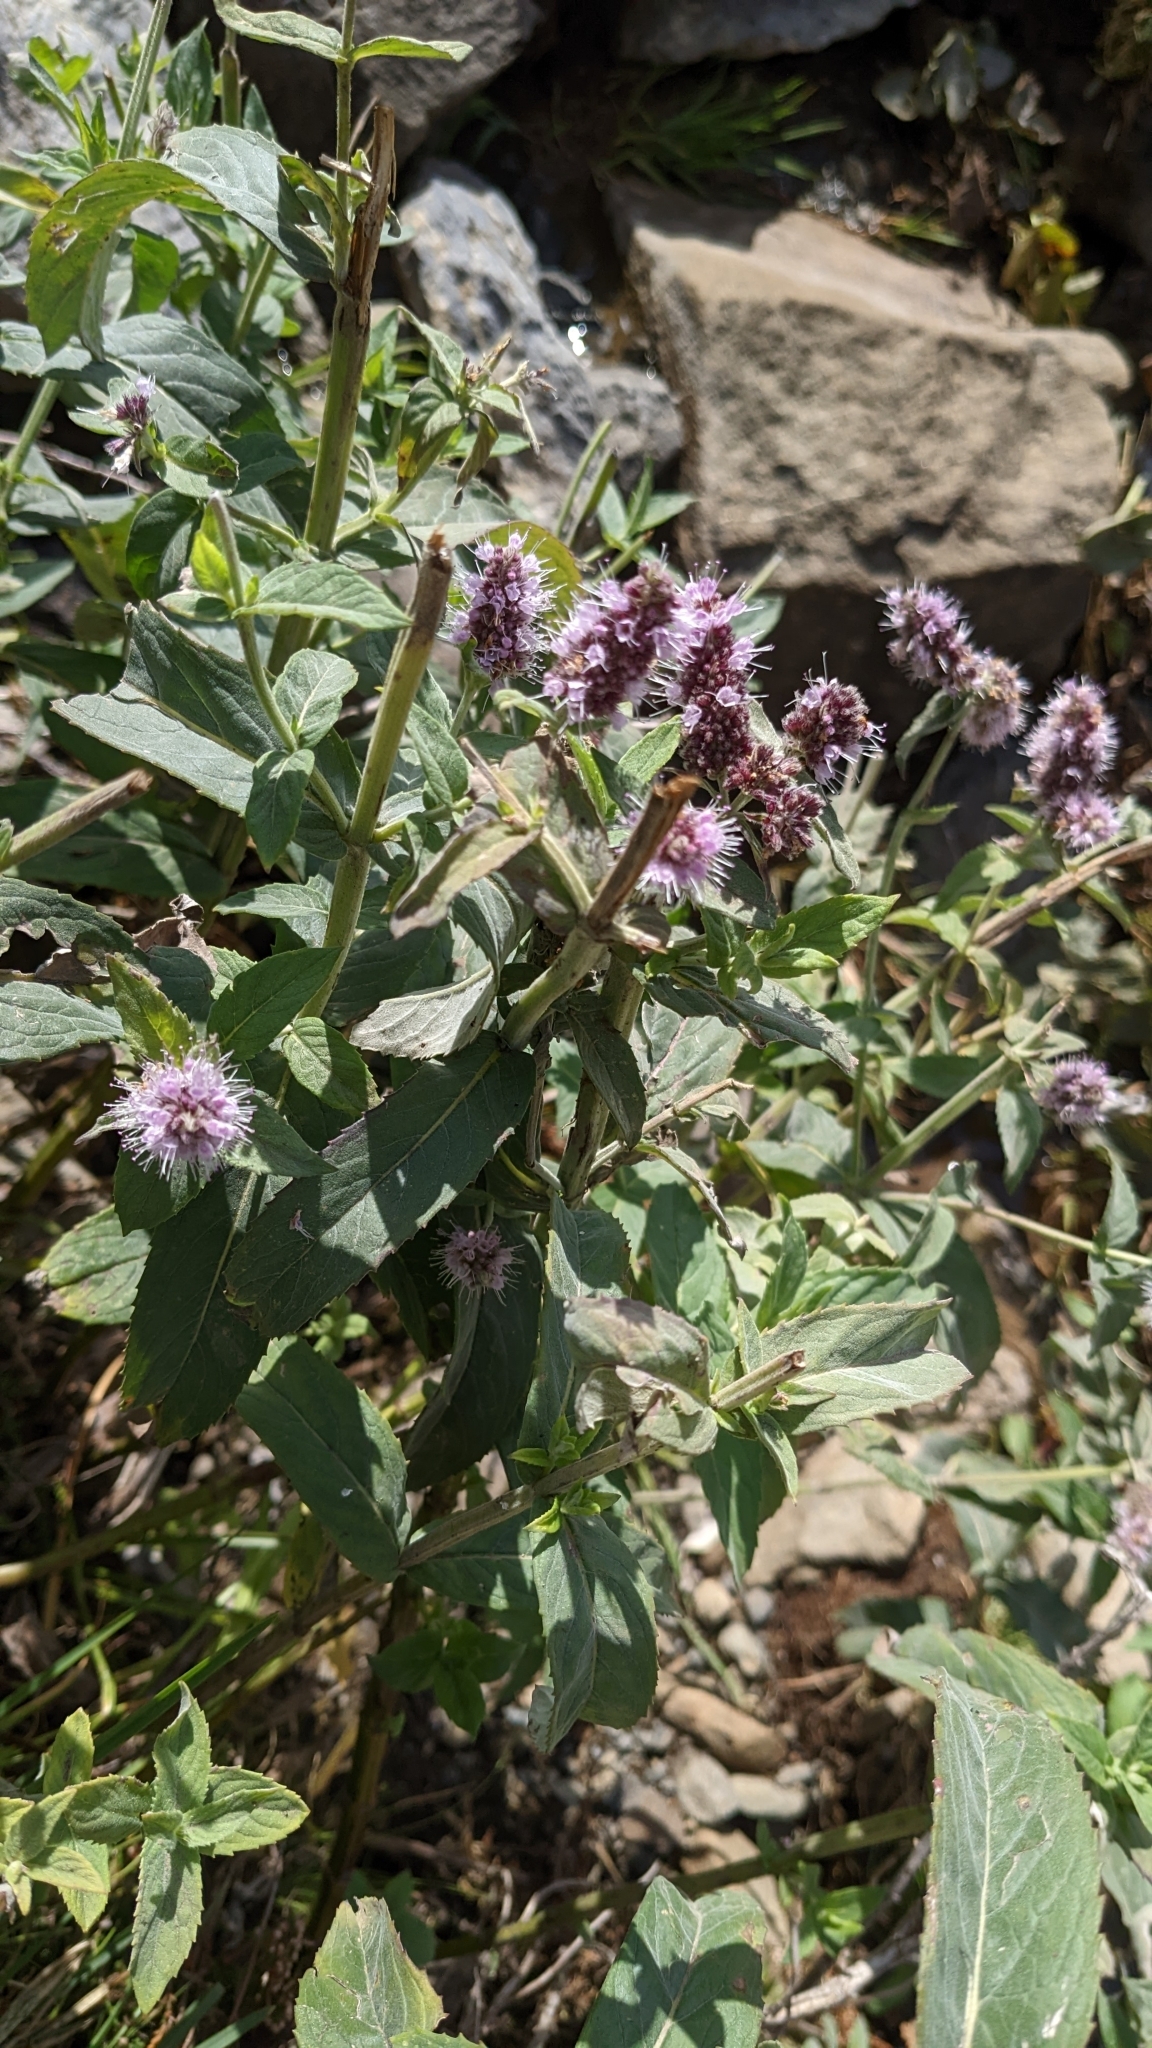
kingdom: Plantae
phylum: Tracheophyta
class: Magnoliopsida
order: Lamiales
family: Lamiaceae
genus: Mentha
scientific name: Mentha longifolia
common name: Horse mint
